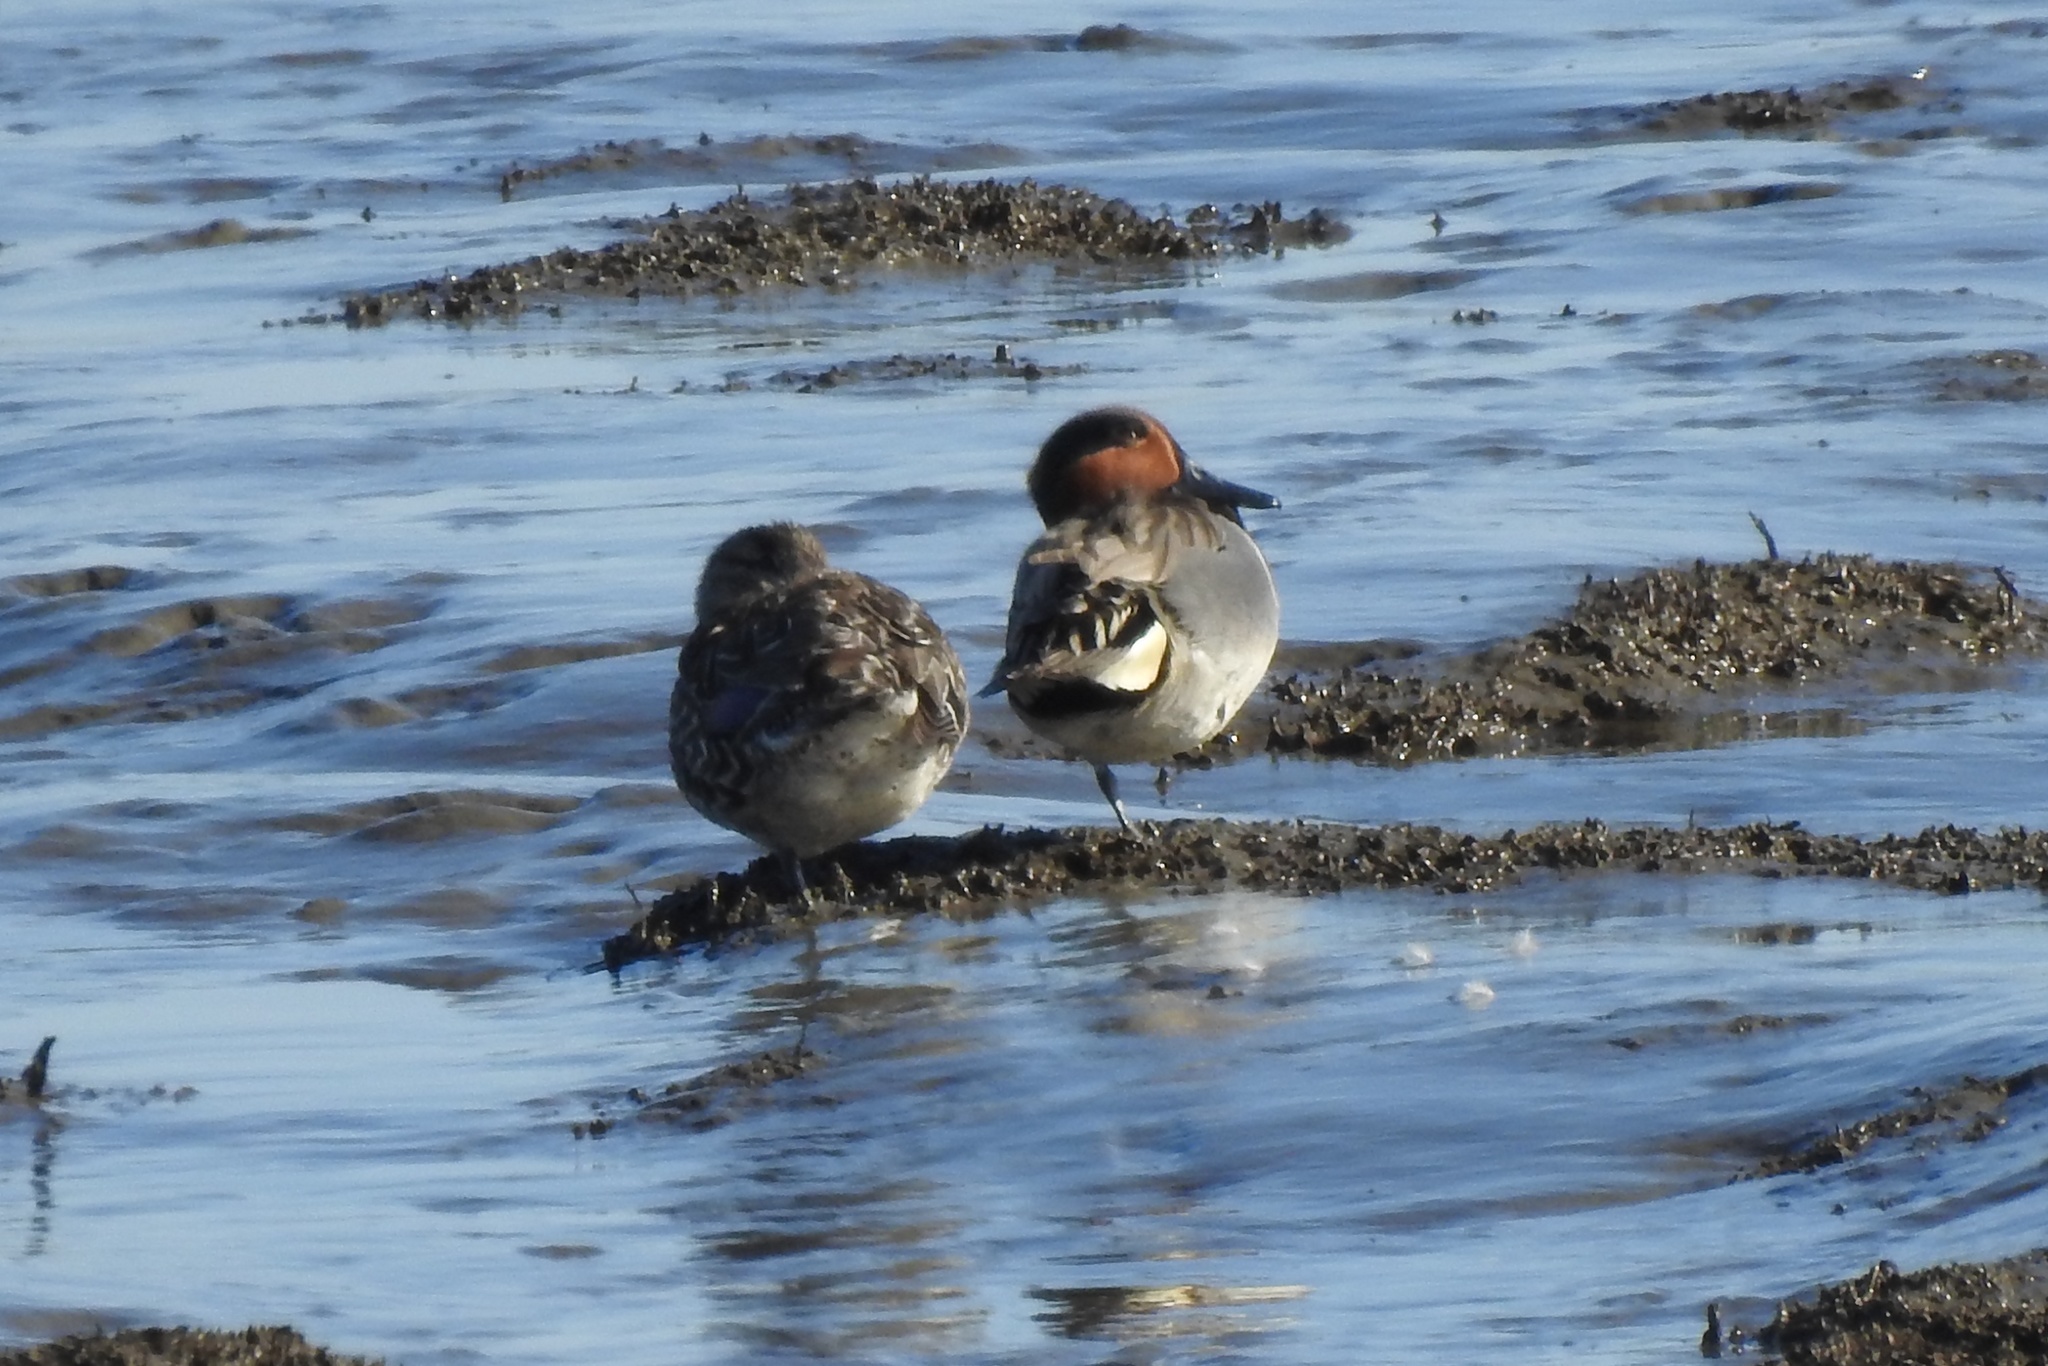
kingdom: Animalia
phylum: Chordata
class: Aves
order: Anseriformes
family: Anatidae
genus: Anas
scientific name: Anas crecca
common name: Eurasian teal
